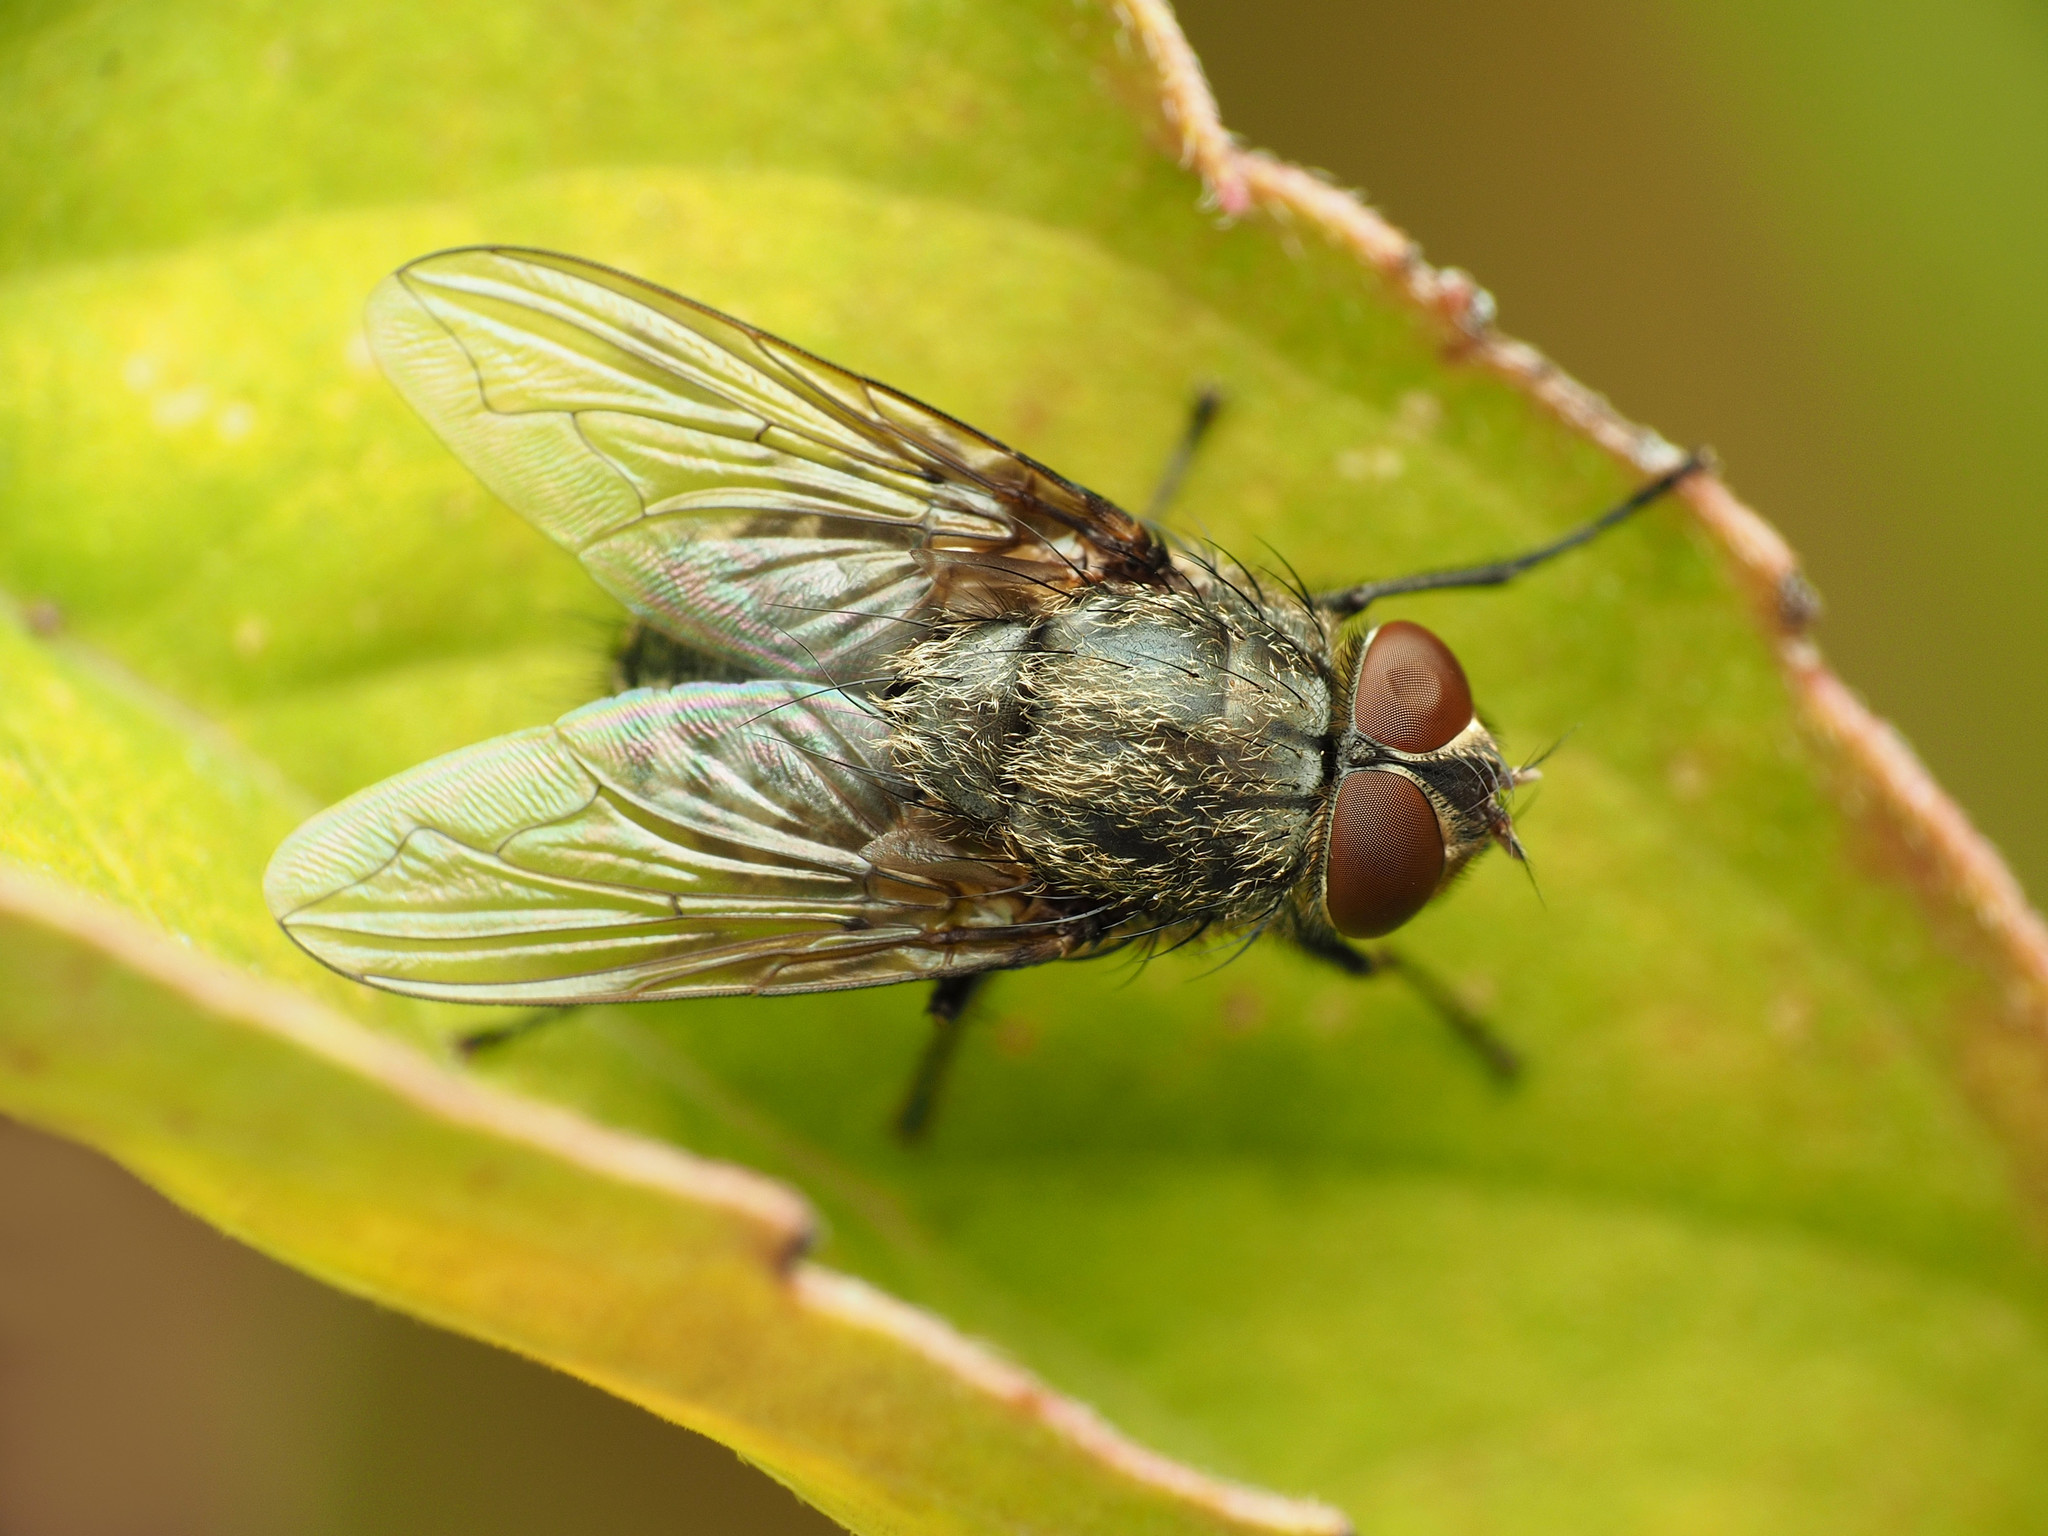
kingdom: Animalia
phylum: Arthropoda
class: Insecta
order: Diptera
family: Polleniidae
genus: Pollenia
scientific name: Pollenia
